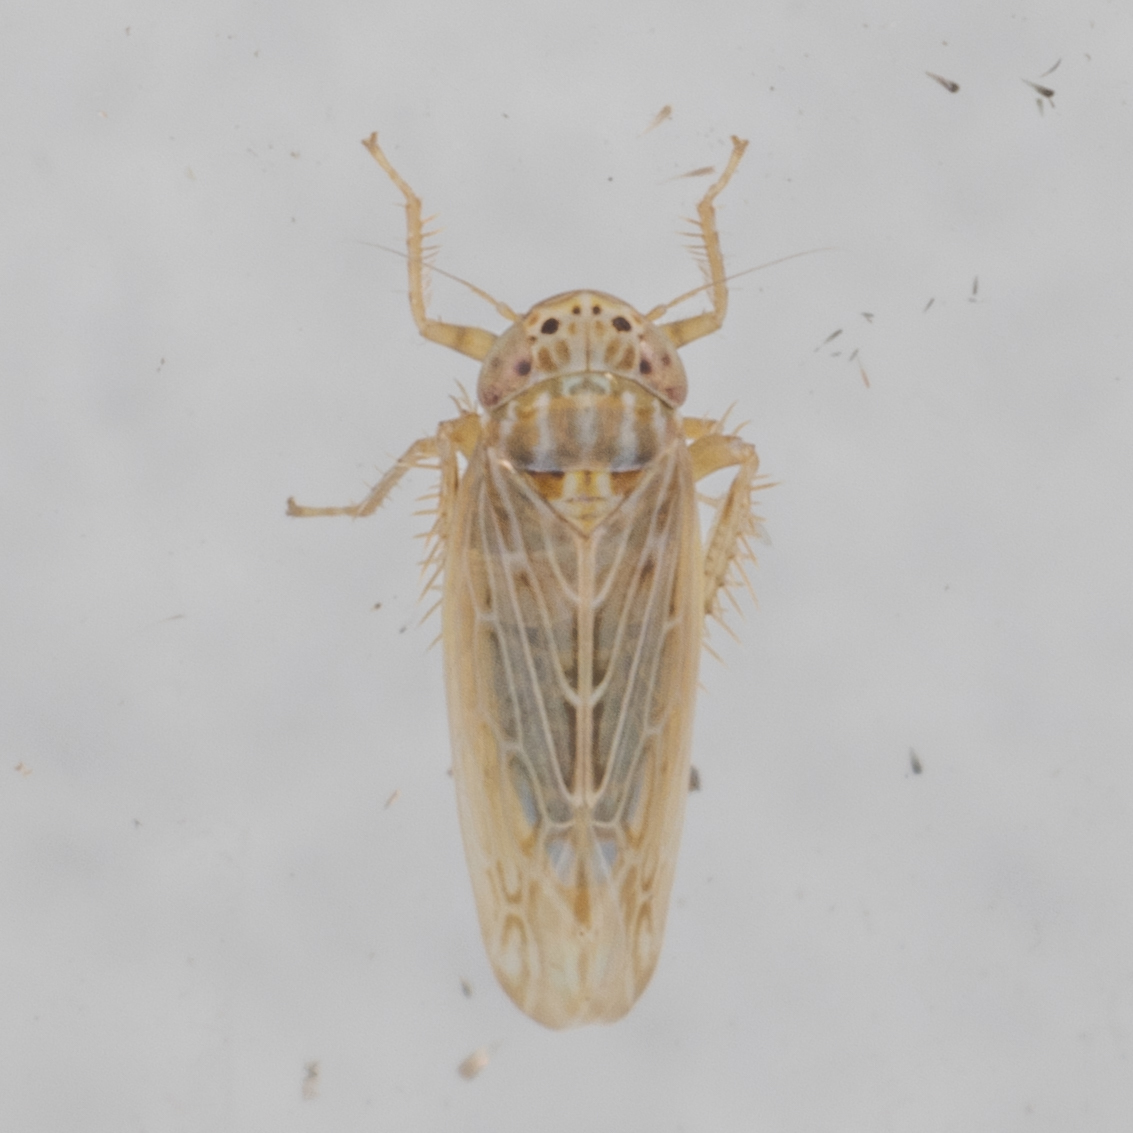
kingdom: Animalia
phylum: Arthropoda
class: Insecta
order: Hemiptera
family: Cicadellidae
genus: Graminella
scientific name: Graminella sonora
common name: Lesser lawn leafhopper
